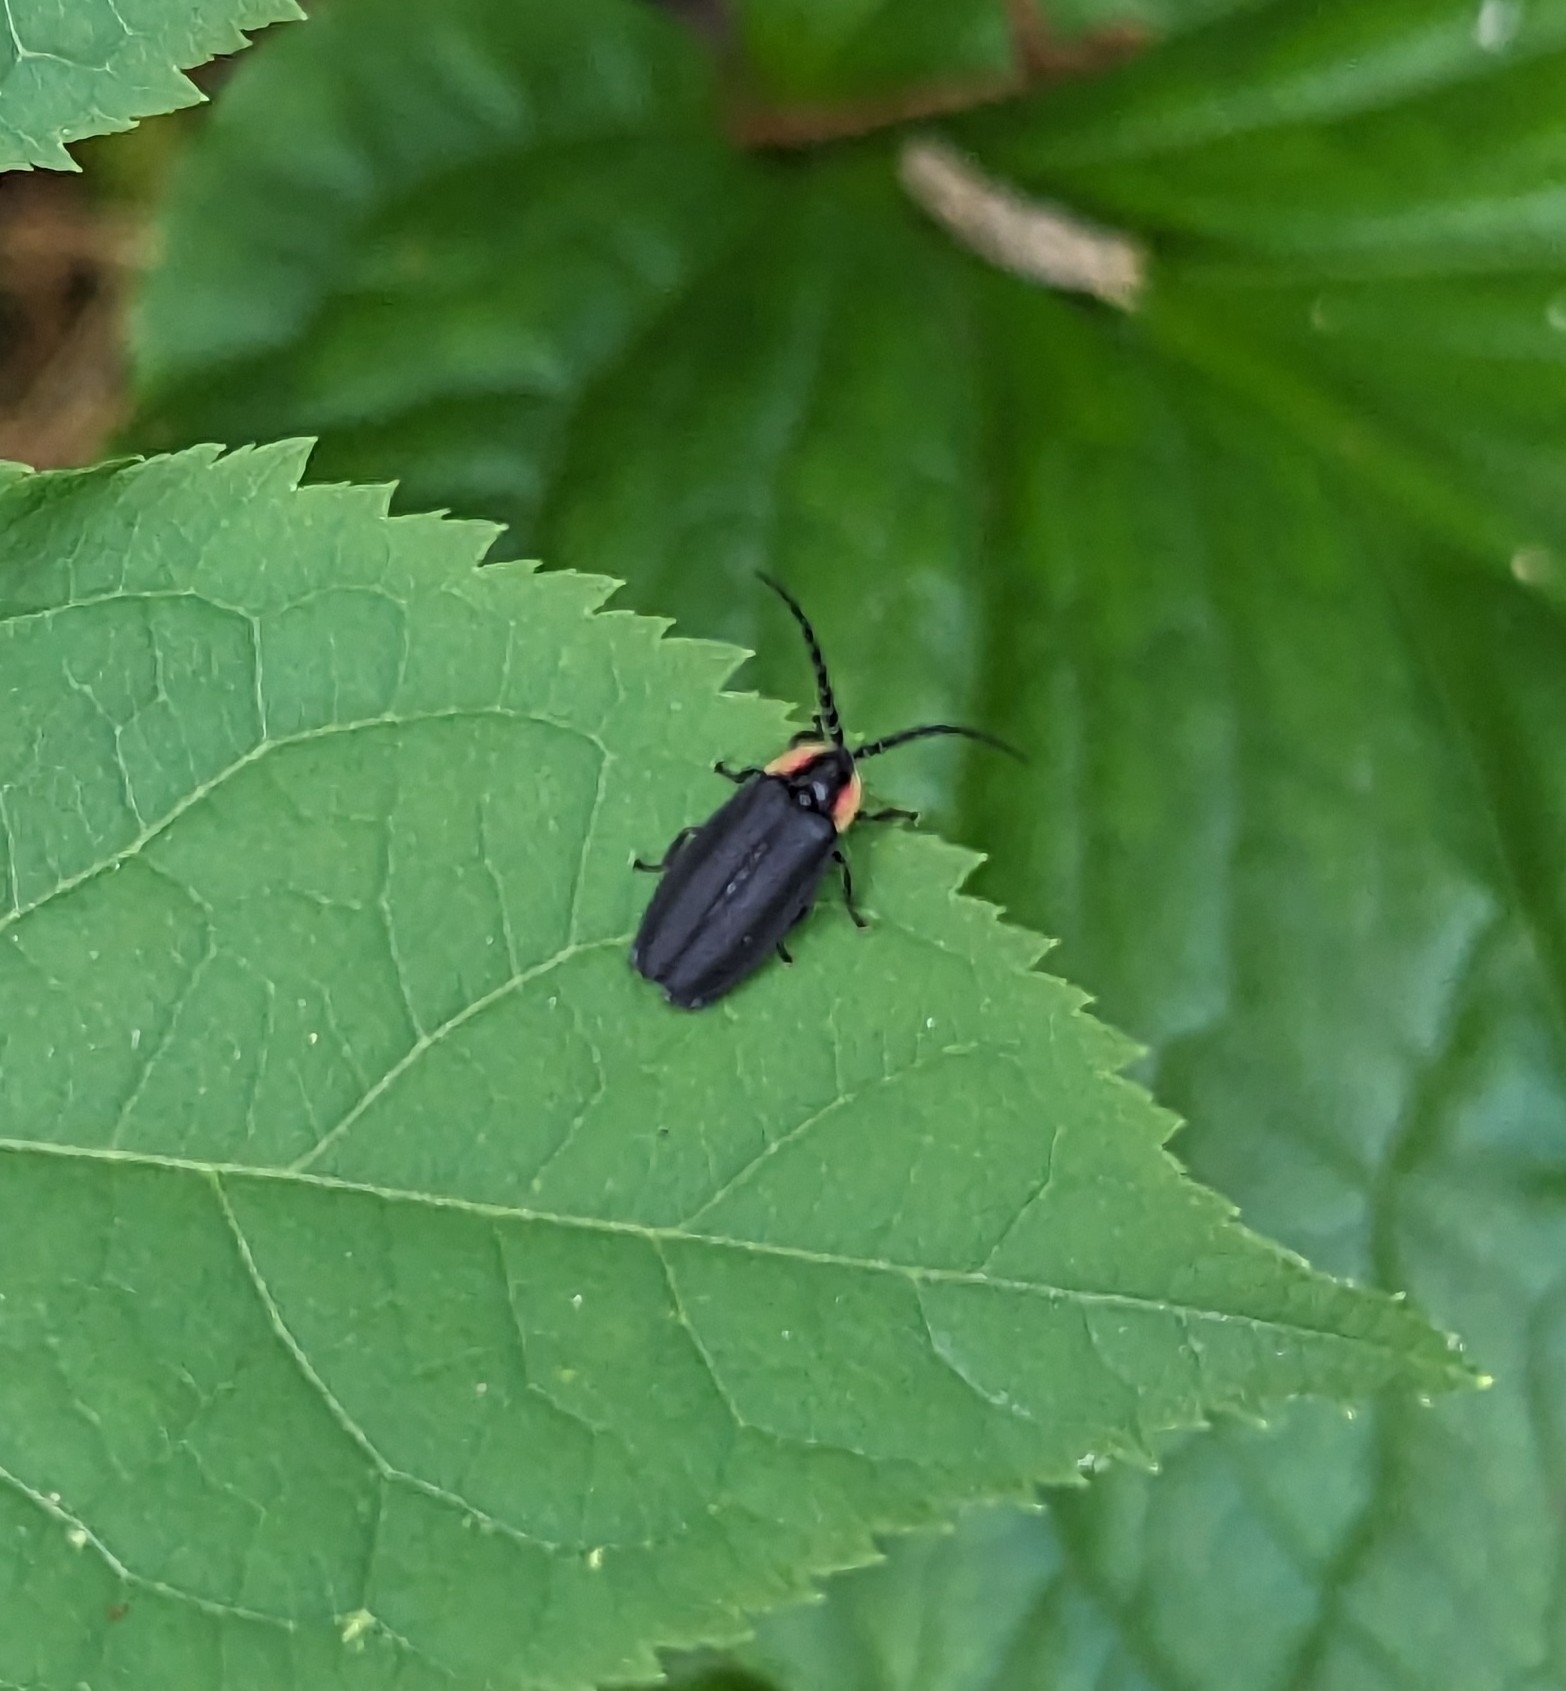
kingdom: Animalia
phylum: Arthropoda
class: Insecta
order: Coleoptera
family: Lampyridae
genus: Lucidota
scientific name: Lucidota atra
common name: Black firefly
